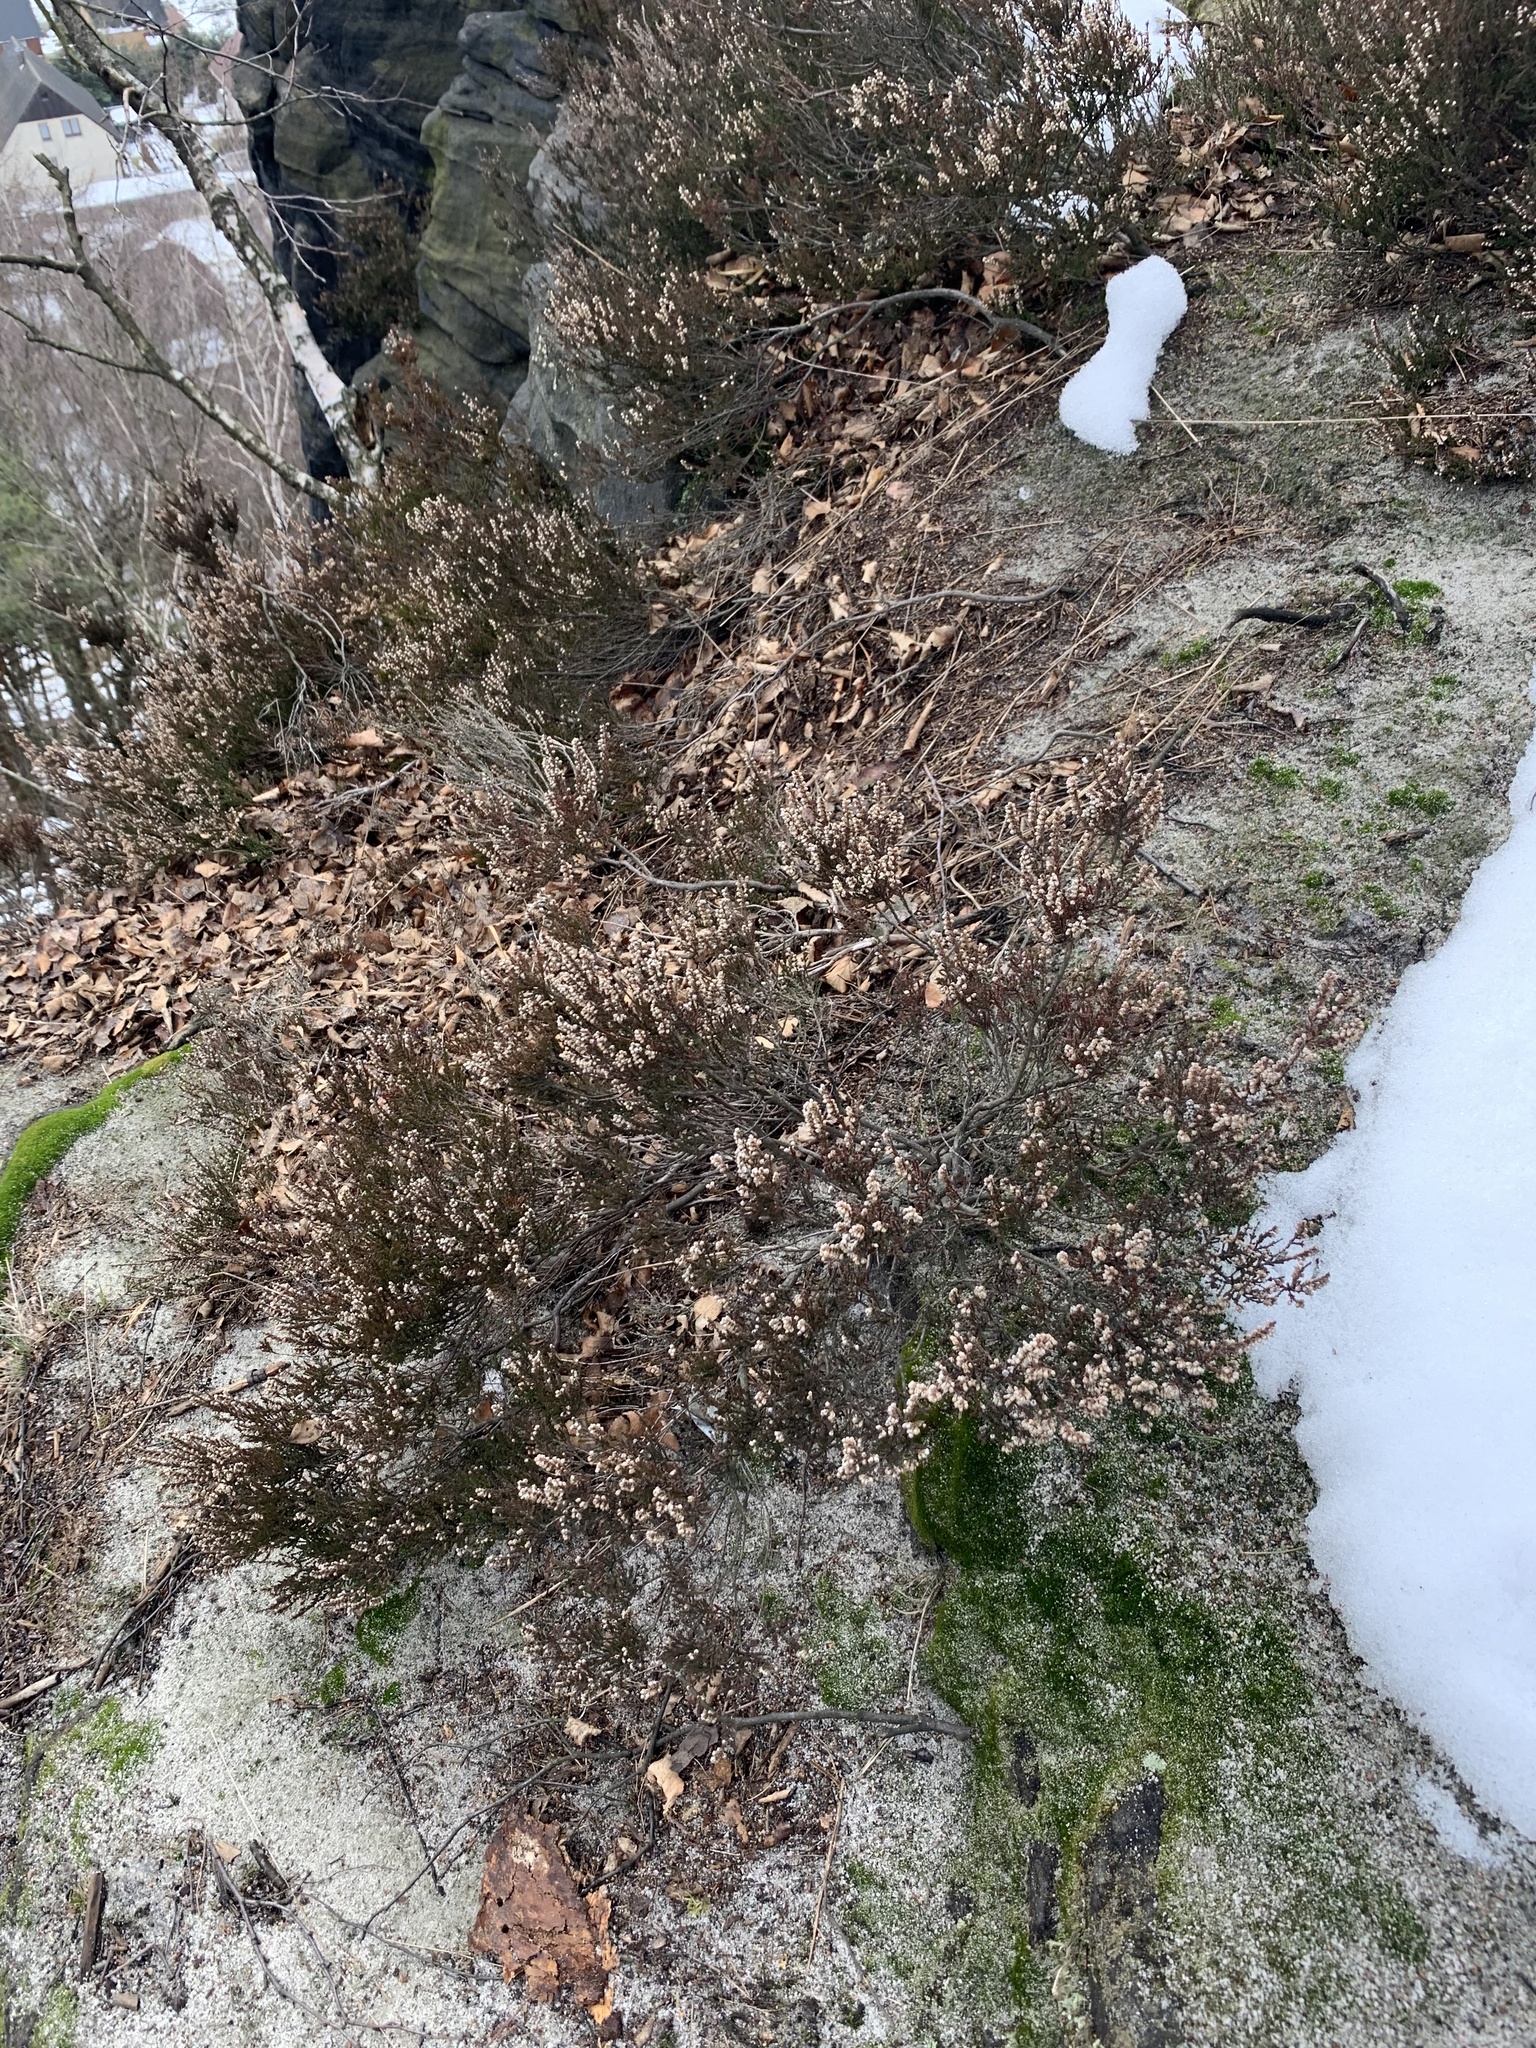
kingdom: Plantae
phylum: Tracheophyta
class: Magnoliopsida
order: Ericales
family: Ericaceae
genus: Calluna
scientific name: Calluna vulgaris
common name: Heather
